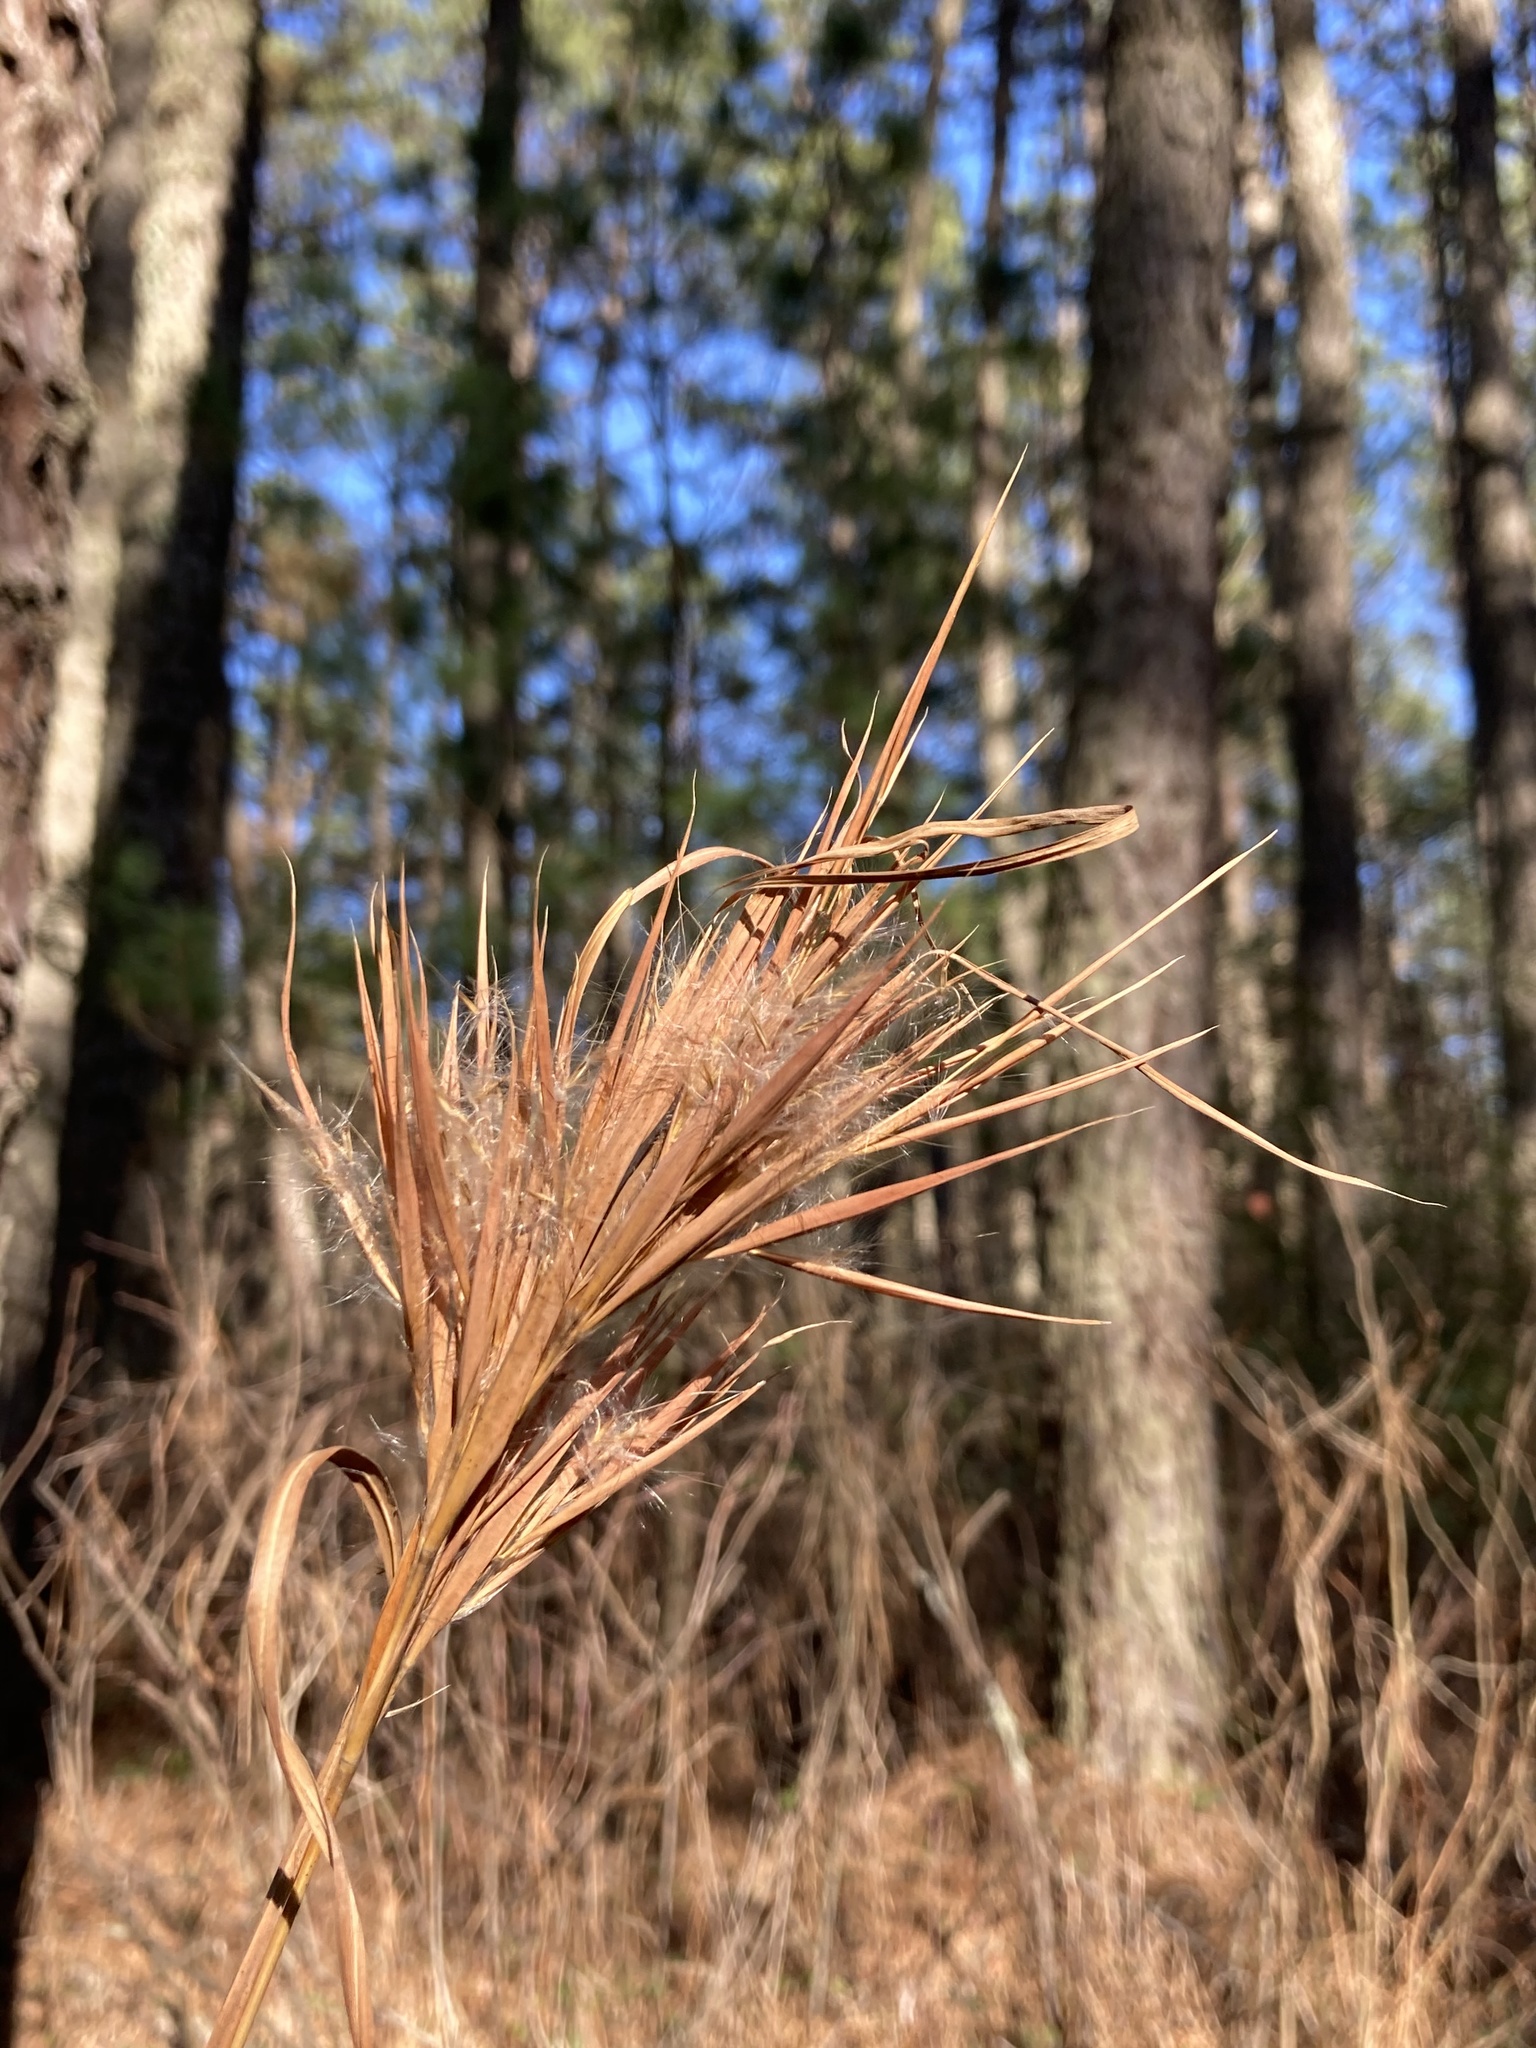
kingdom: Plantae
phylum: Tracheophyta
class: Liliopsida
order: Poales
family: Poaceae
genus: Andropogon
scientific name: Andropogon glomeratus
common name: Bushy beard grass
